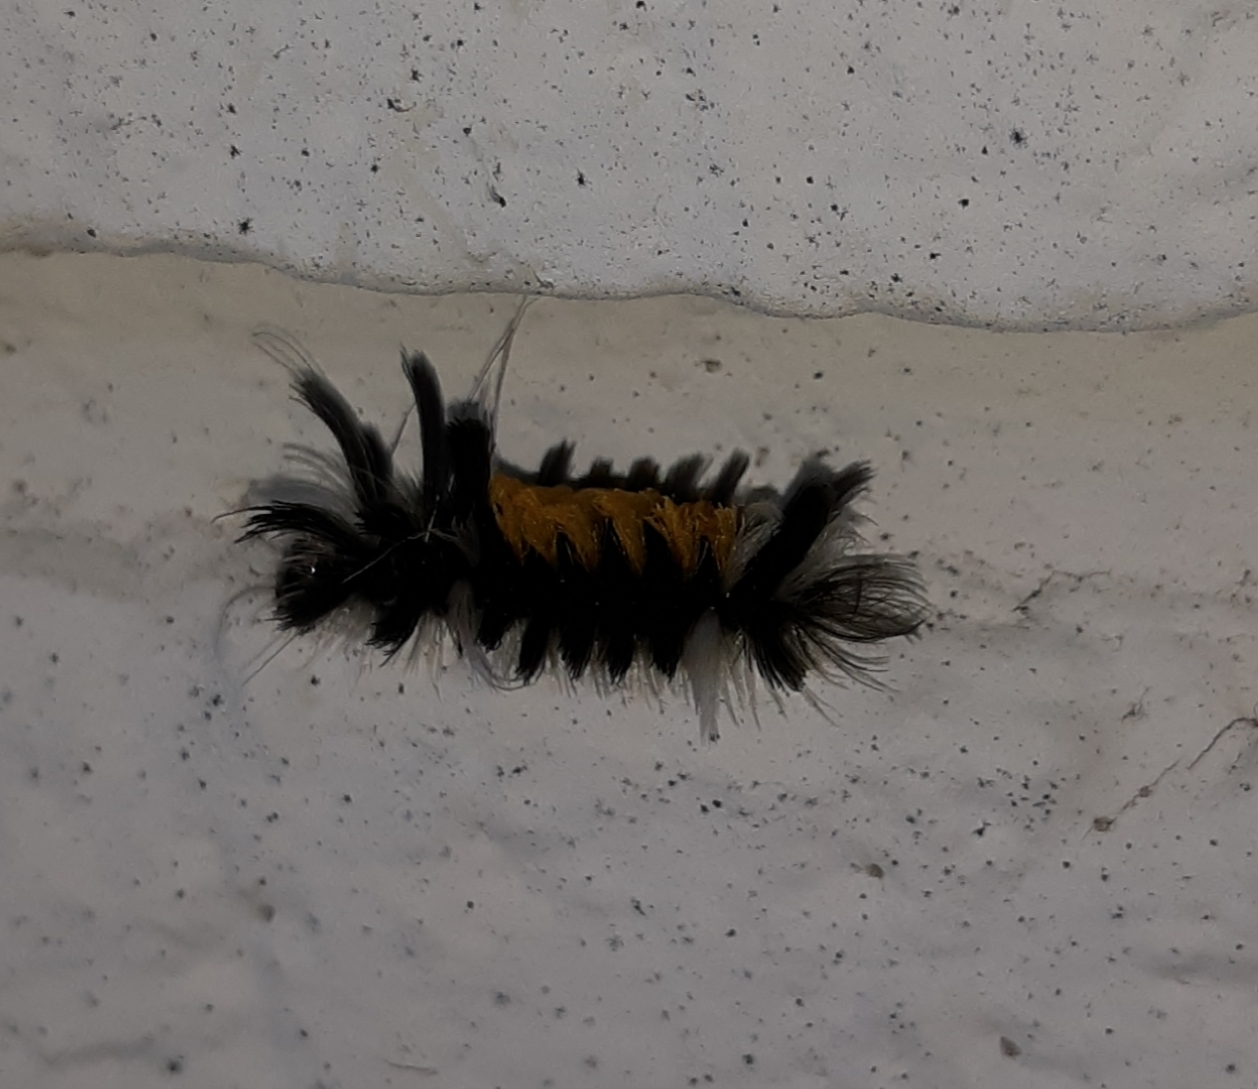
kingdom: Animalia
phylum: Arthropoda
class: Insecta
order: Lepidoptera
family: Erebidae
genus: Euchaetes
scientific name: Euchaetes egle
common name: Milkweed tussock moth
